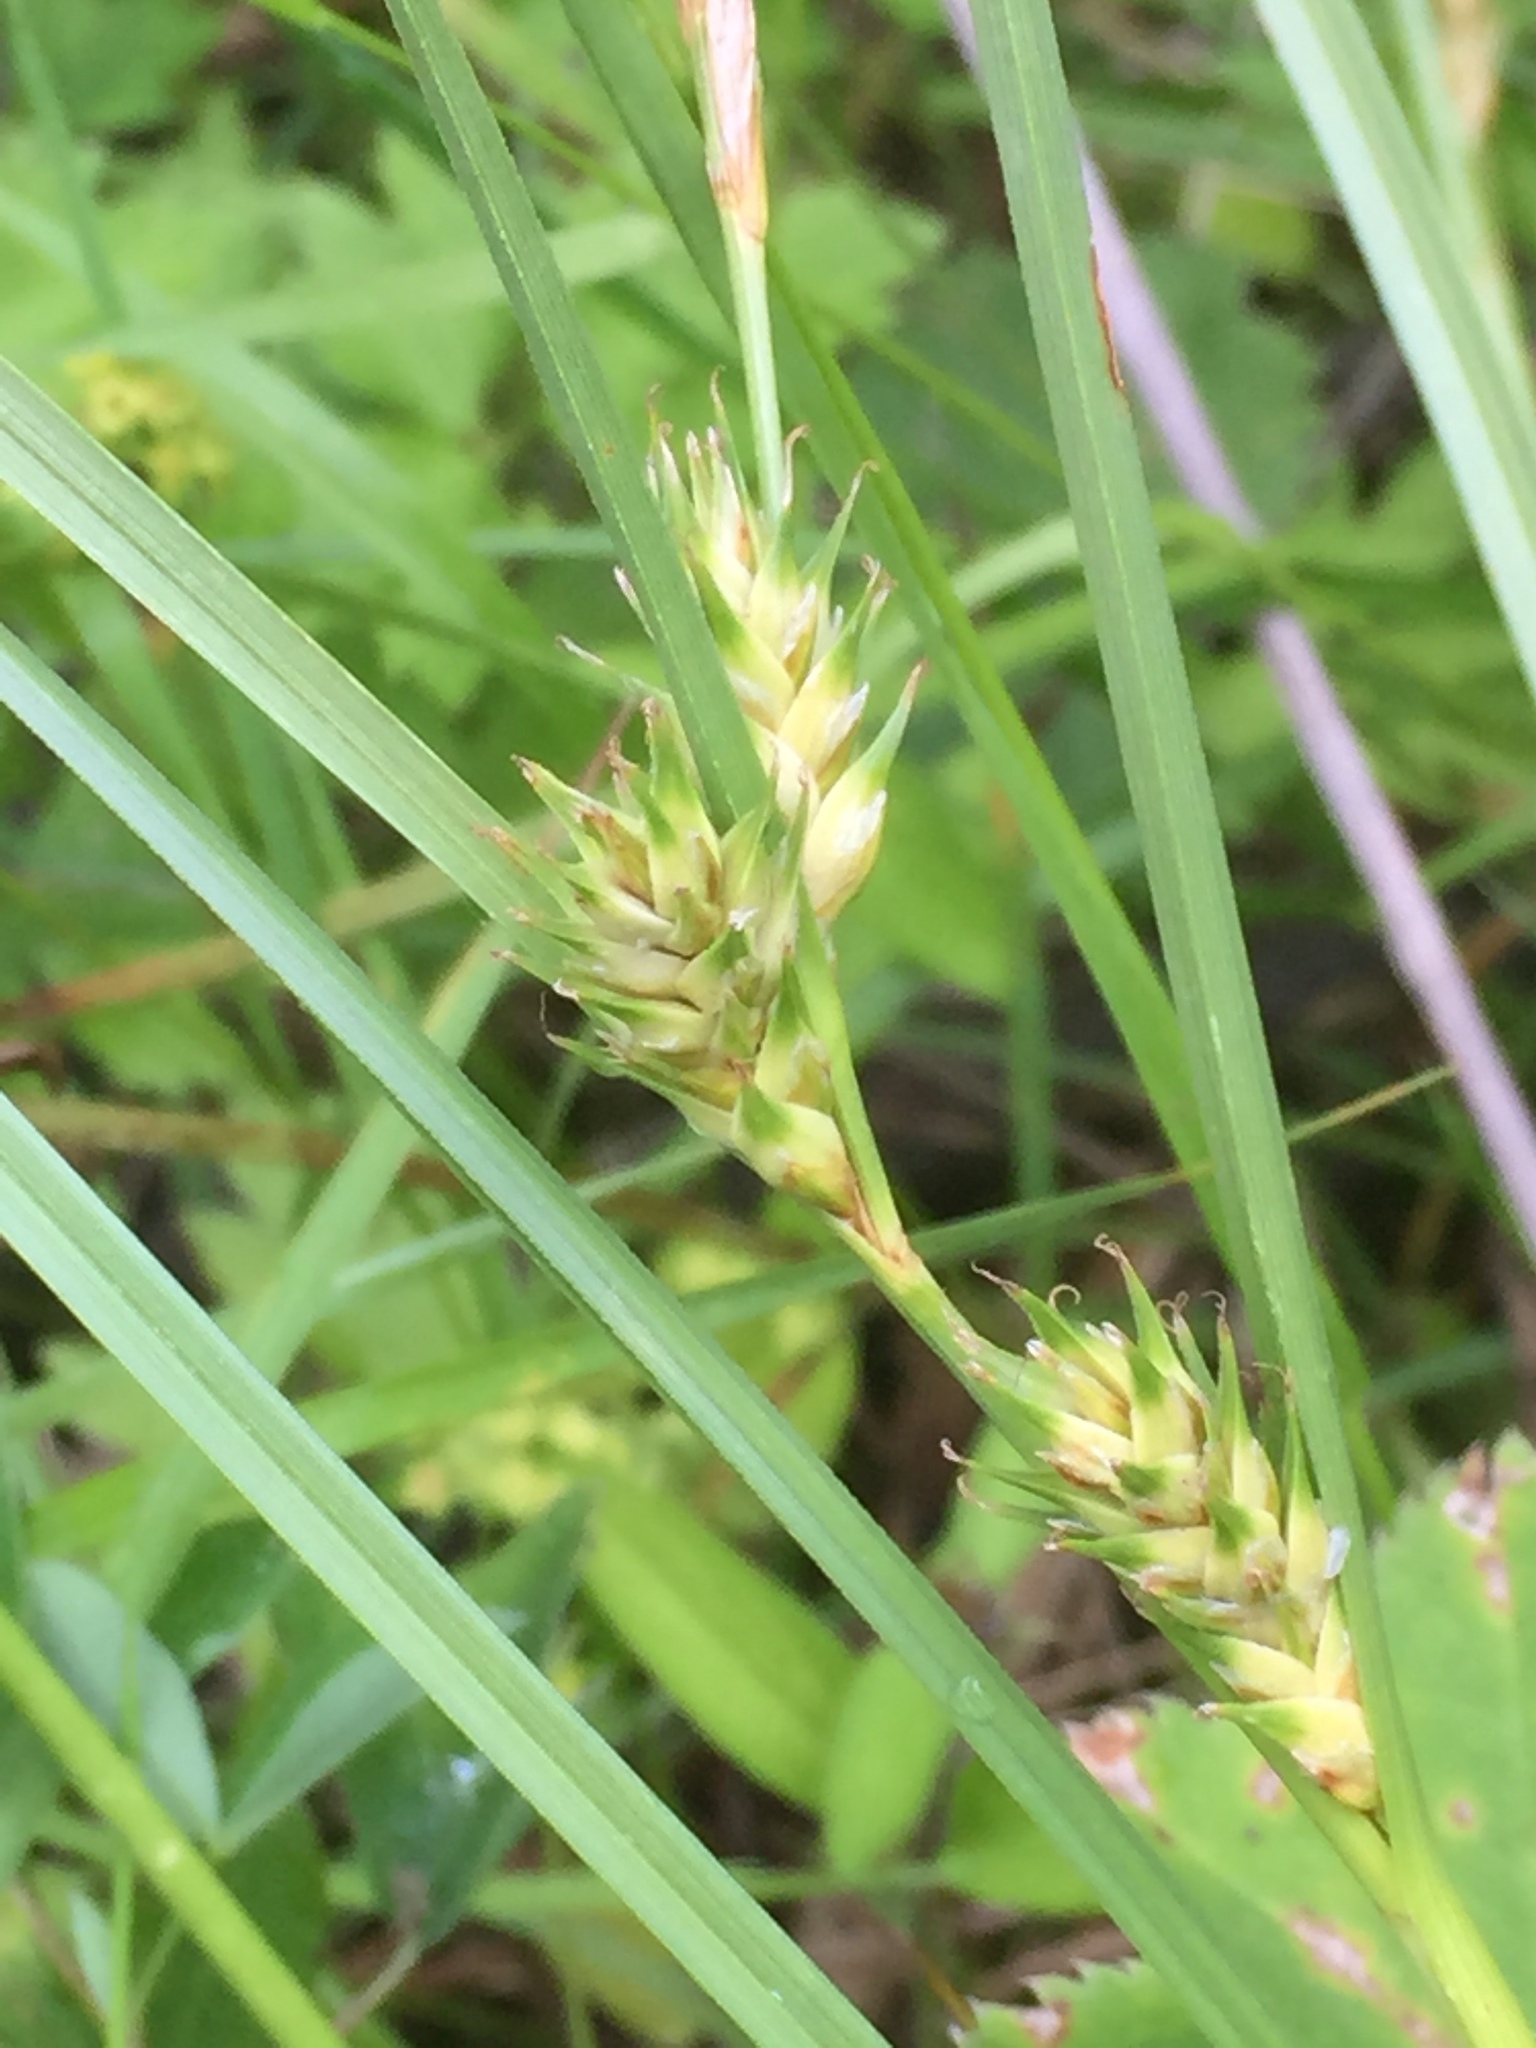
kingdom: Plantae
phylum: Tracheophyta
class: Liliopsida
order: Poales
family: Cyperaceae
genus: Carex
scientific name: Carex hordeistichos
